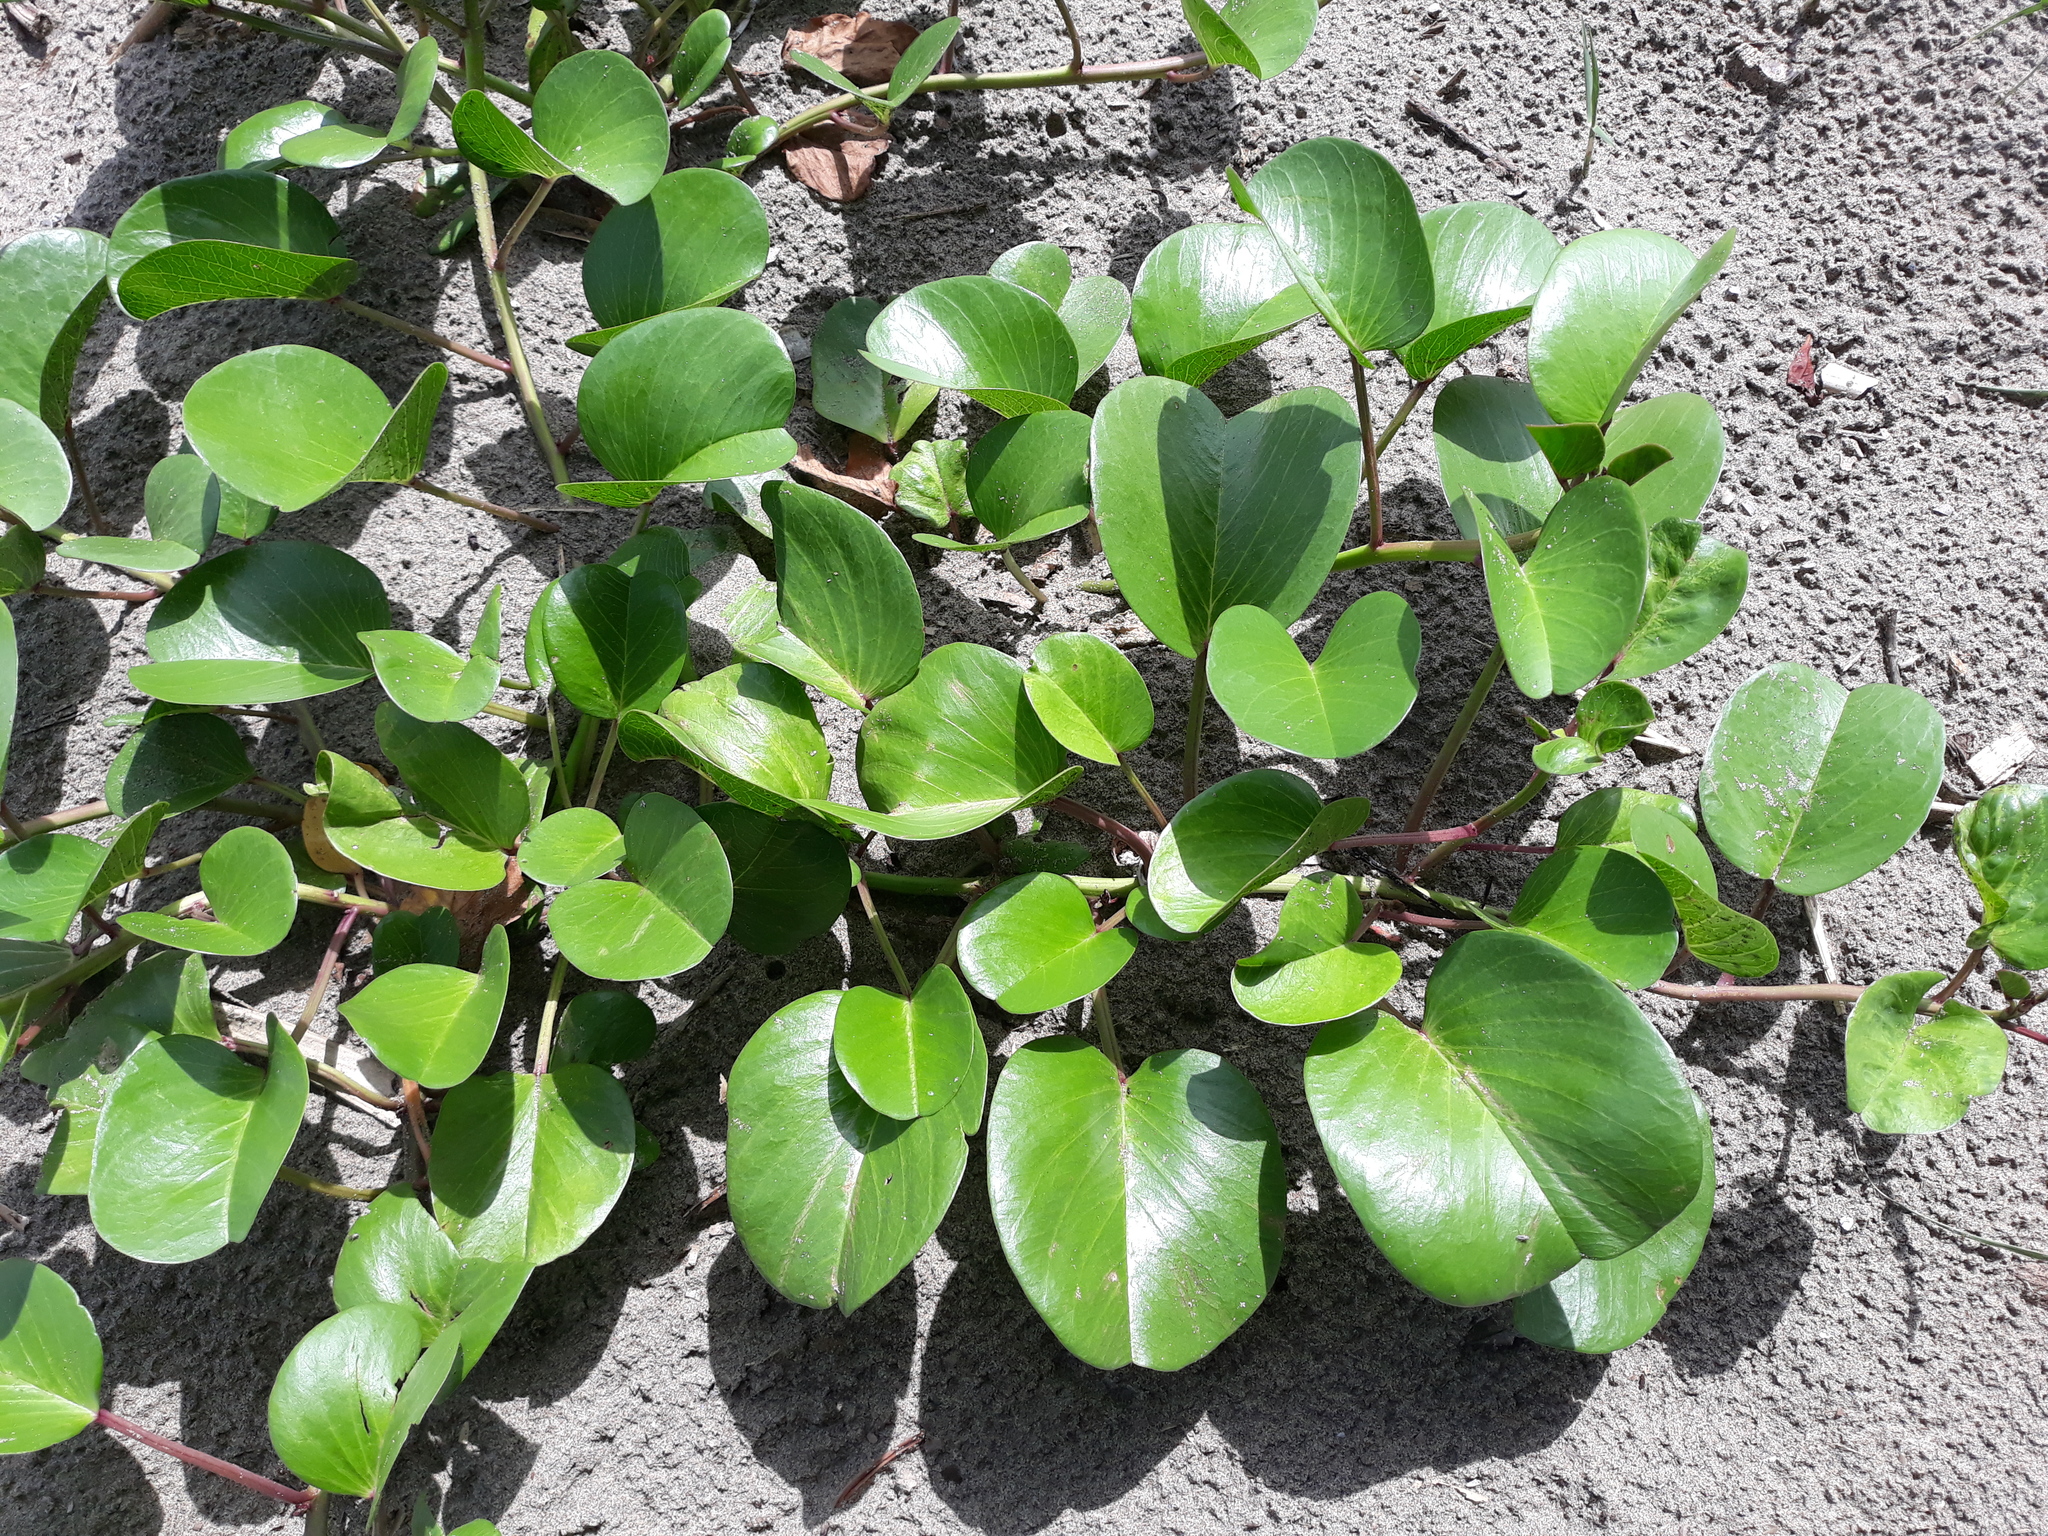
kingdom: Plantae
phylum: Tracheophyta
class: Magnoliopsida
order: Solanales
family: Convolvulaceae
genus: Ipomoea
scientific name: Ipomoea pes-caprae
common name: Beach morning glory
